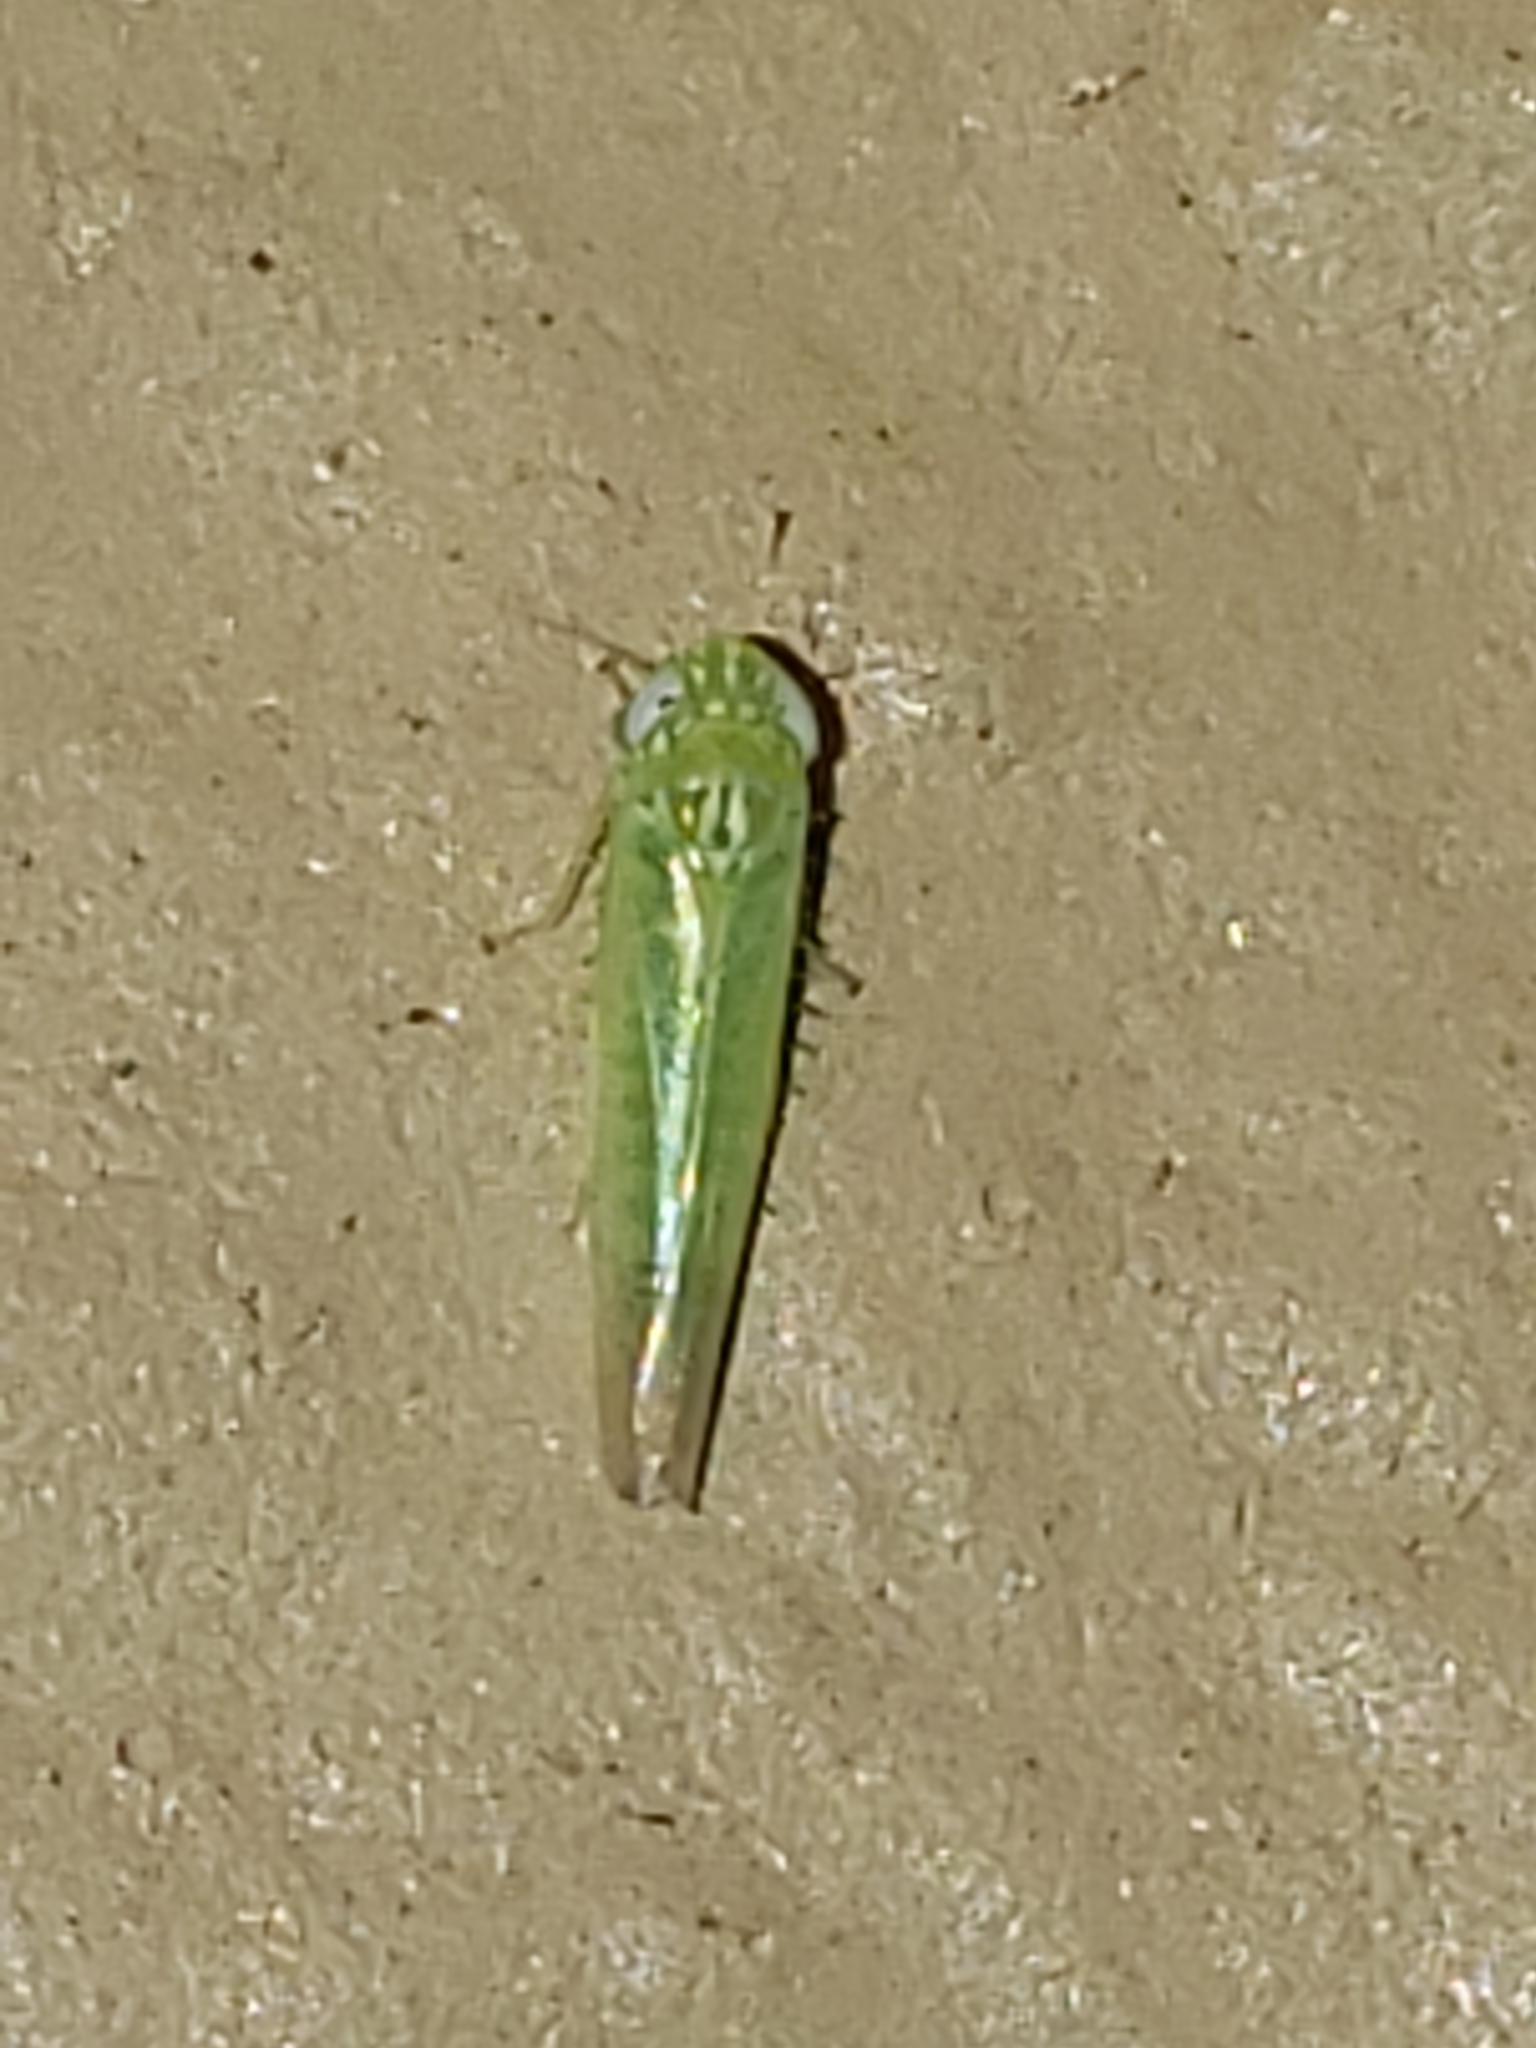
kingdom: Animalia
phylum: Arthropoda
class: Insecta
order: Hemiptera
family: Cicadellidae
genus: Empoasca
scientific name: Empoasca fabae
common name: Potato leafhopper
